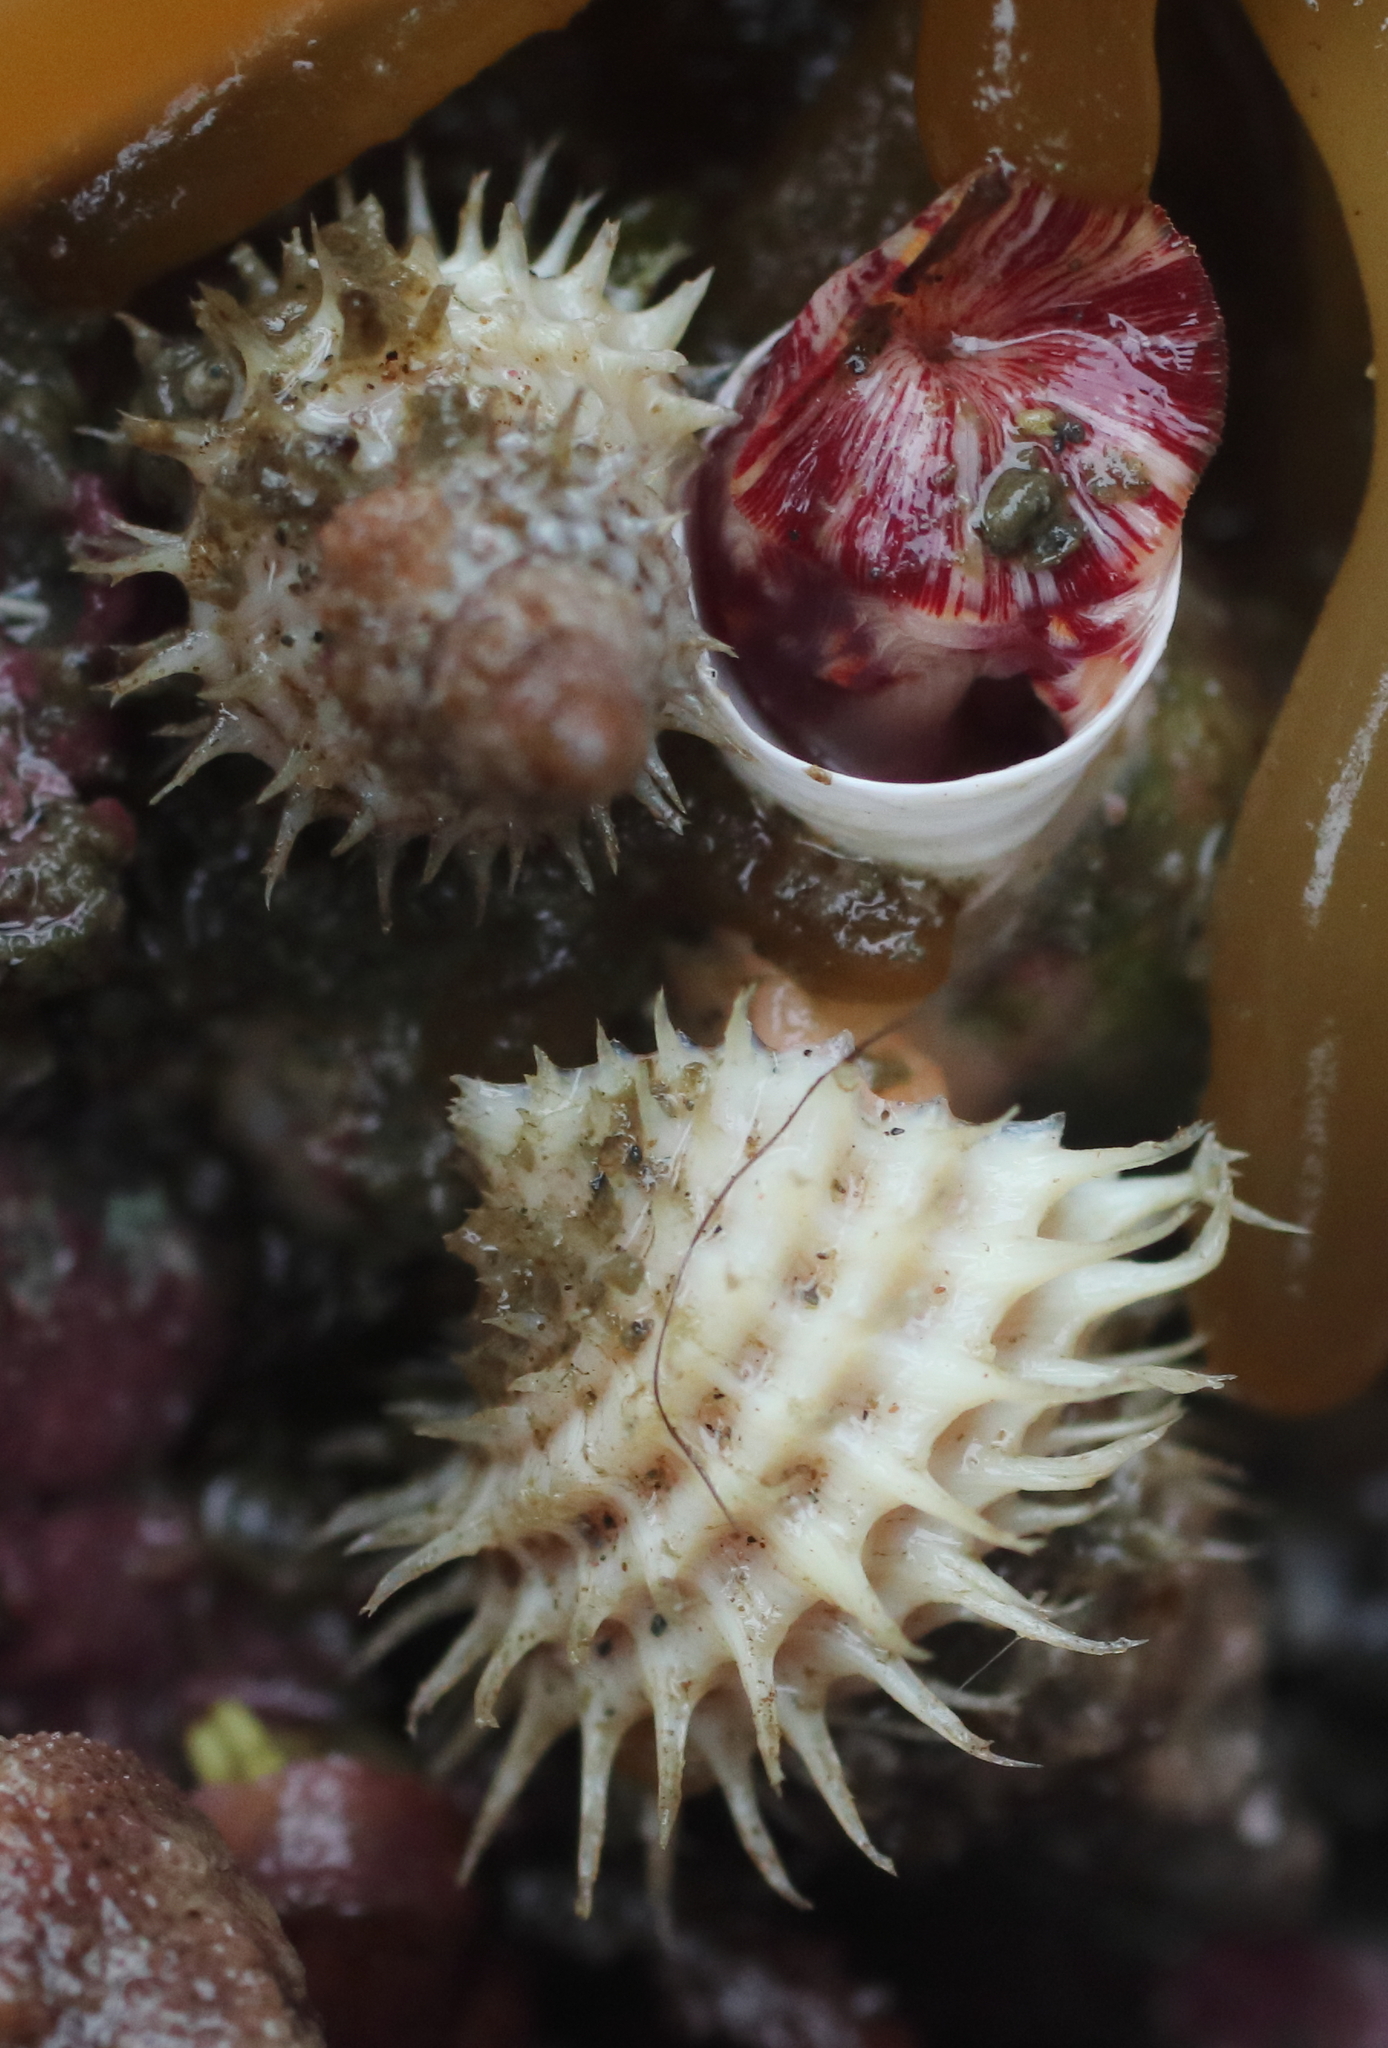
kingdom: Animalia
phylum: Mollusca
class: Gastropoda
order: Littorinimorpha
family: Capulidae
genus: Trichotropis
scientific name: Trichotropis cancellata
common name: Cancellate hairysnail
